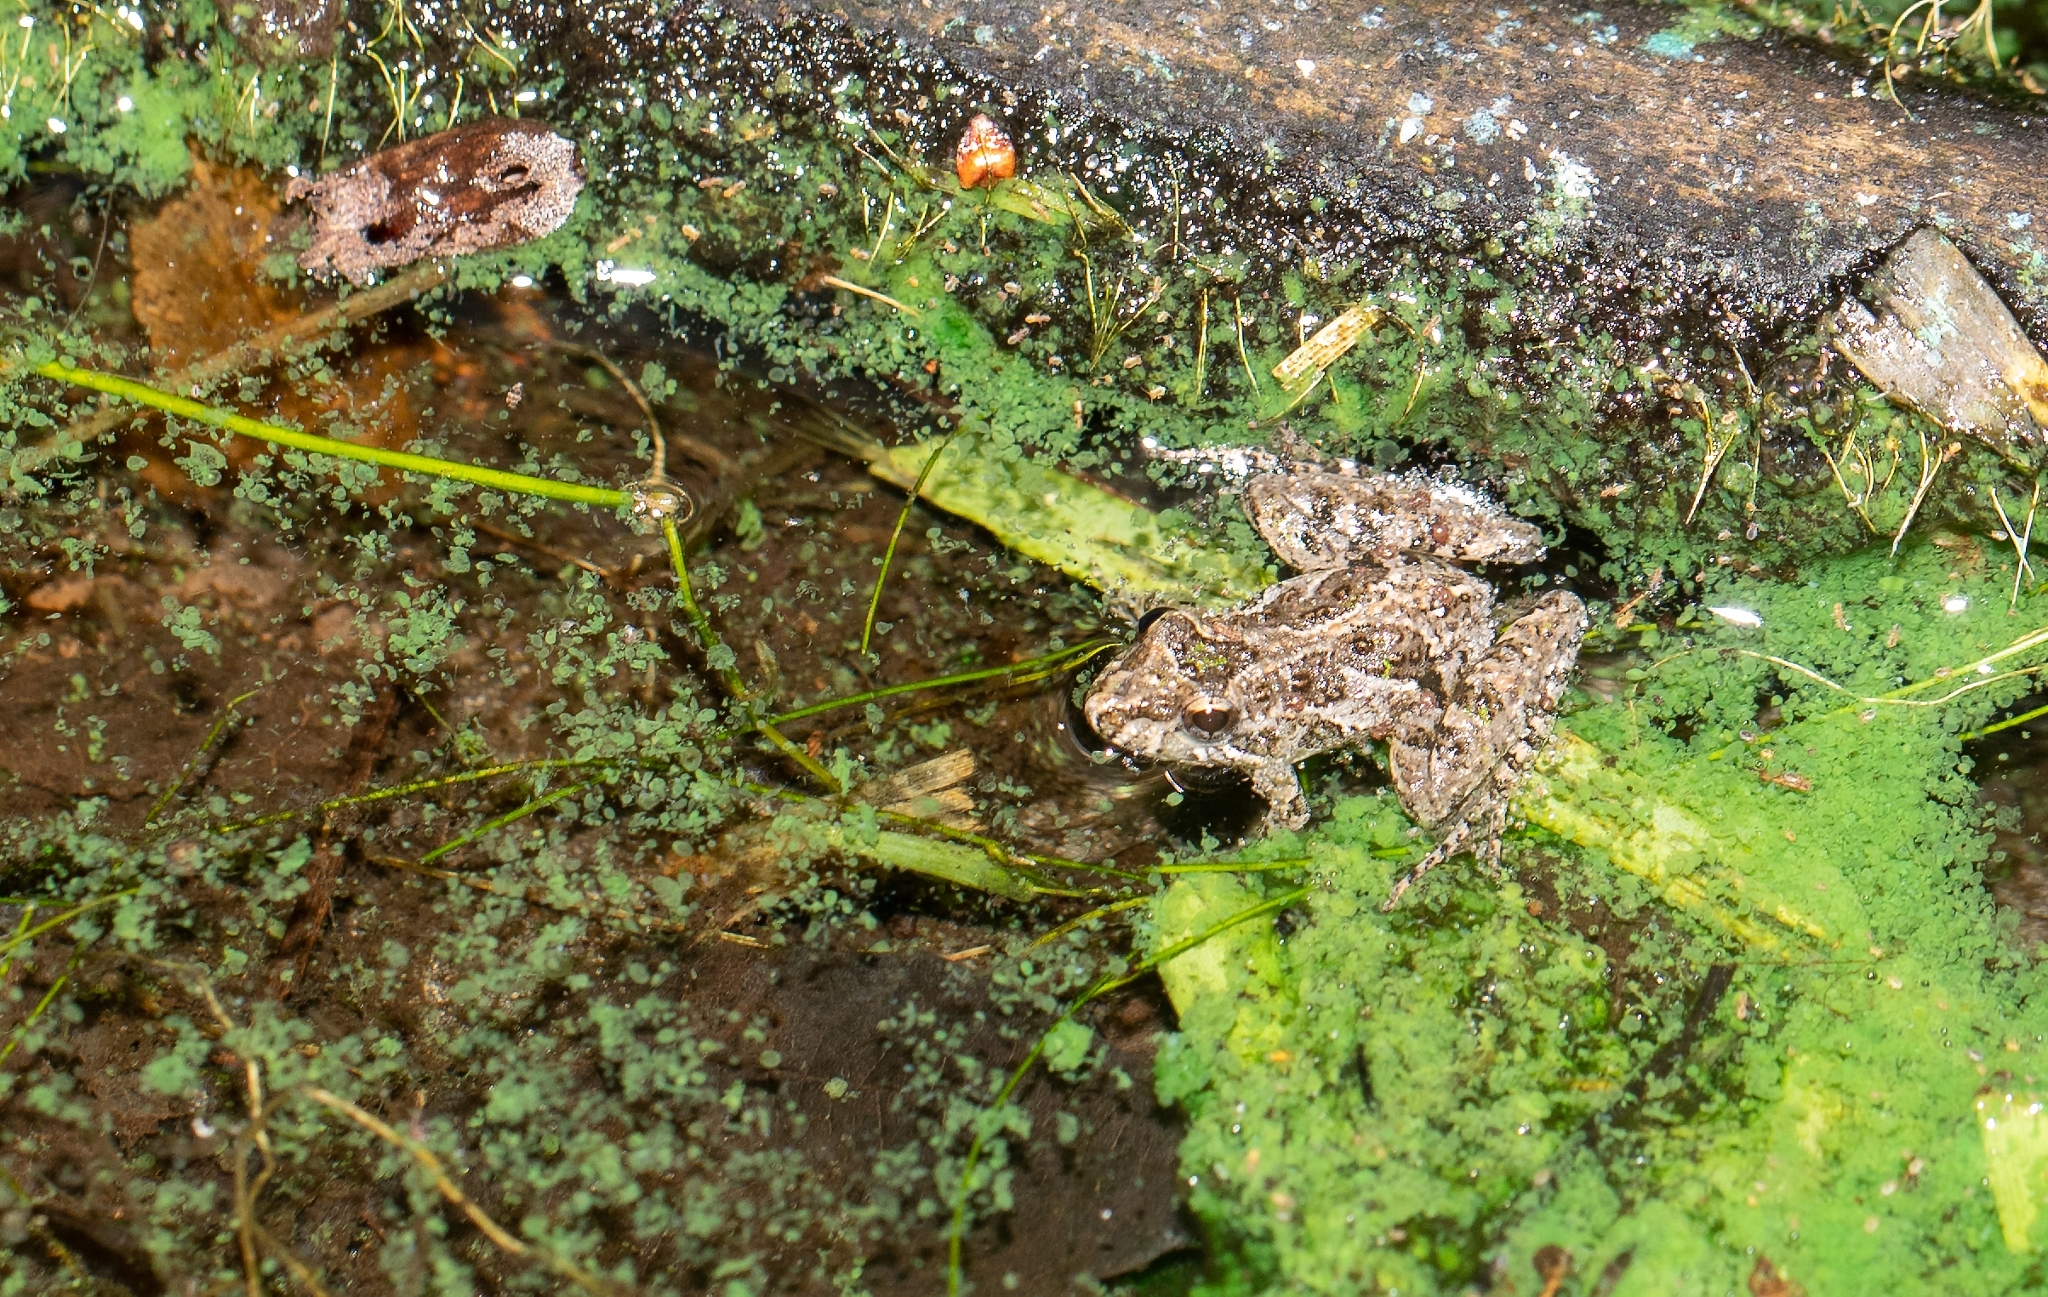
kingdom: Animalia
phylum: Chordata
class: Amphibia
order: Anura
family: Hylidae
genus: Acris
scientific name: Acris gryllus
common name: Southern cricket frog
